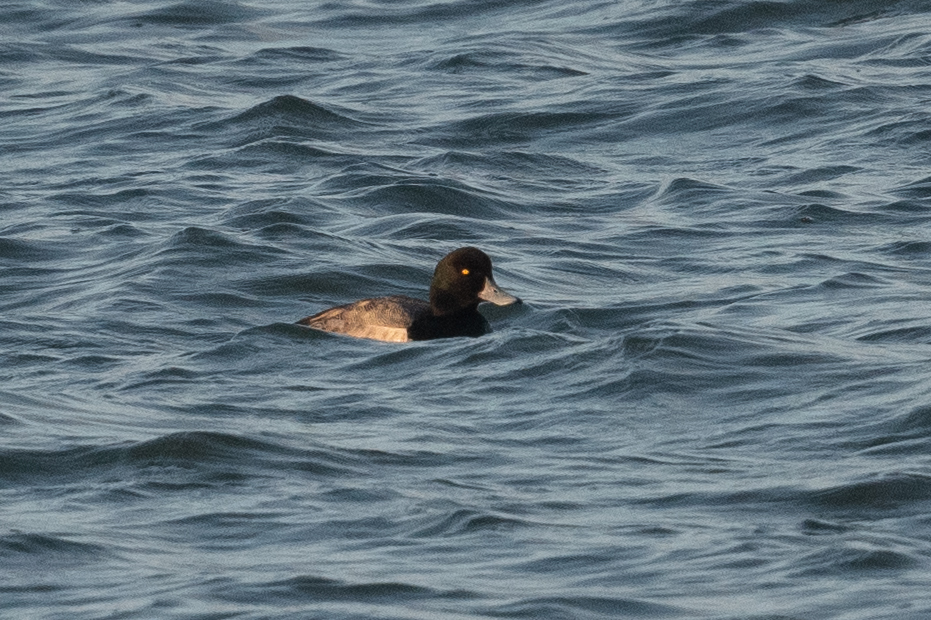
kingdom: Animalia
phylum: Chordata
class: Aves
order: Anseriformes
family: Anatidae
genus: Aythya
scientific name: Aythya marila
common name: Greater scaup
